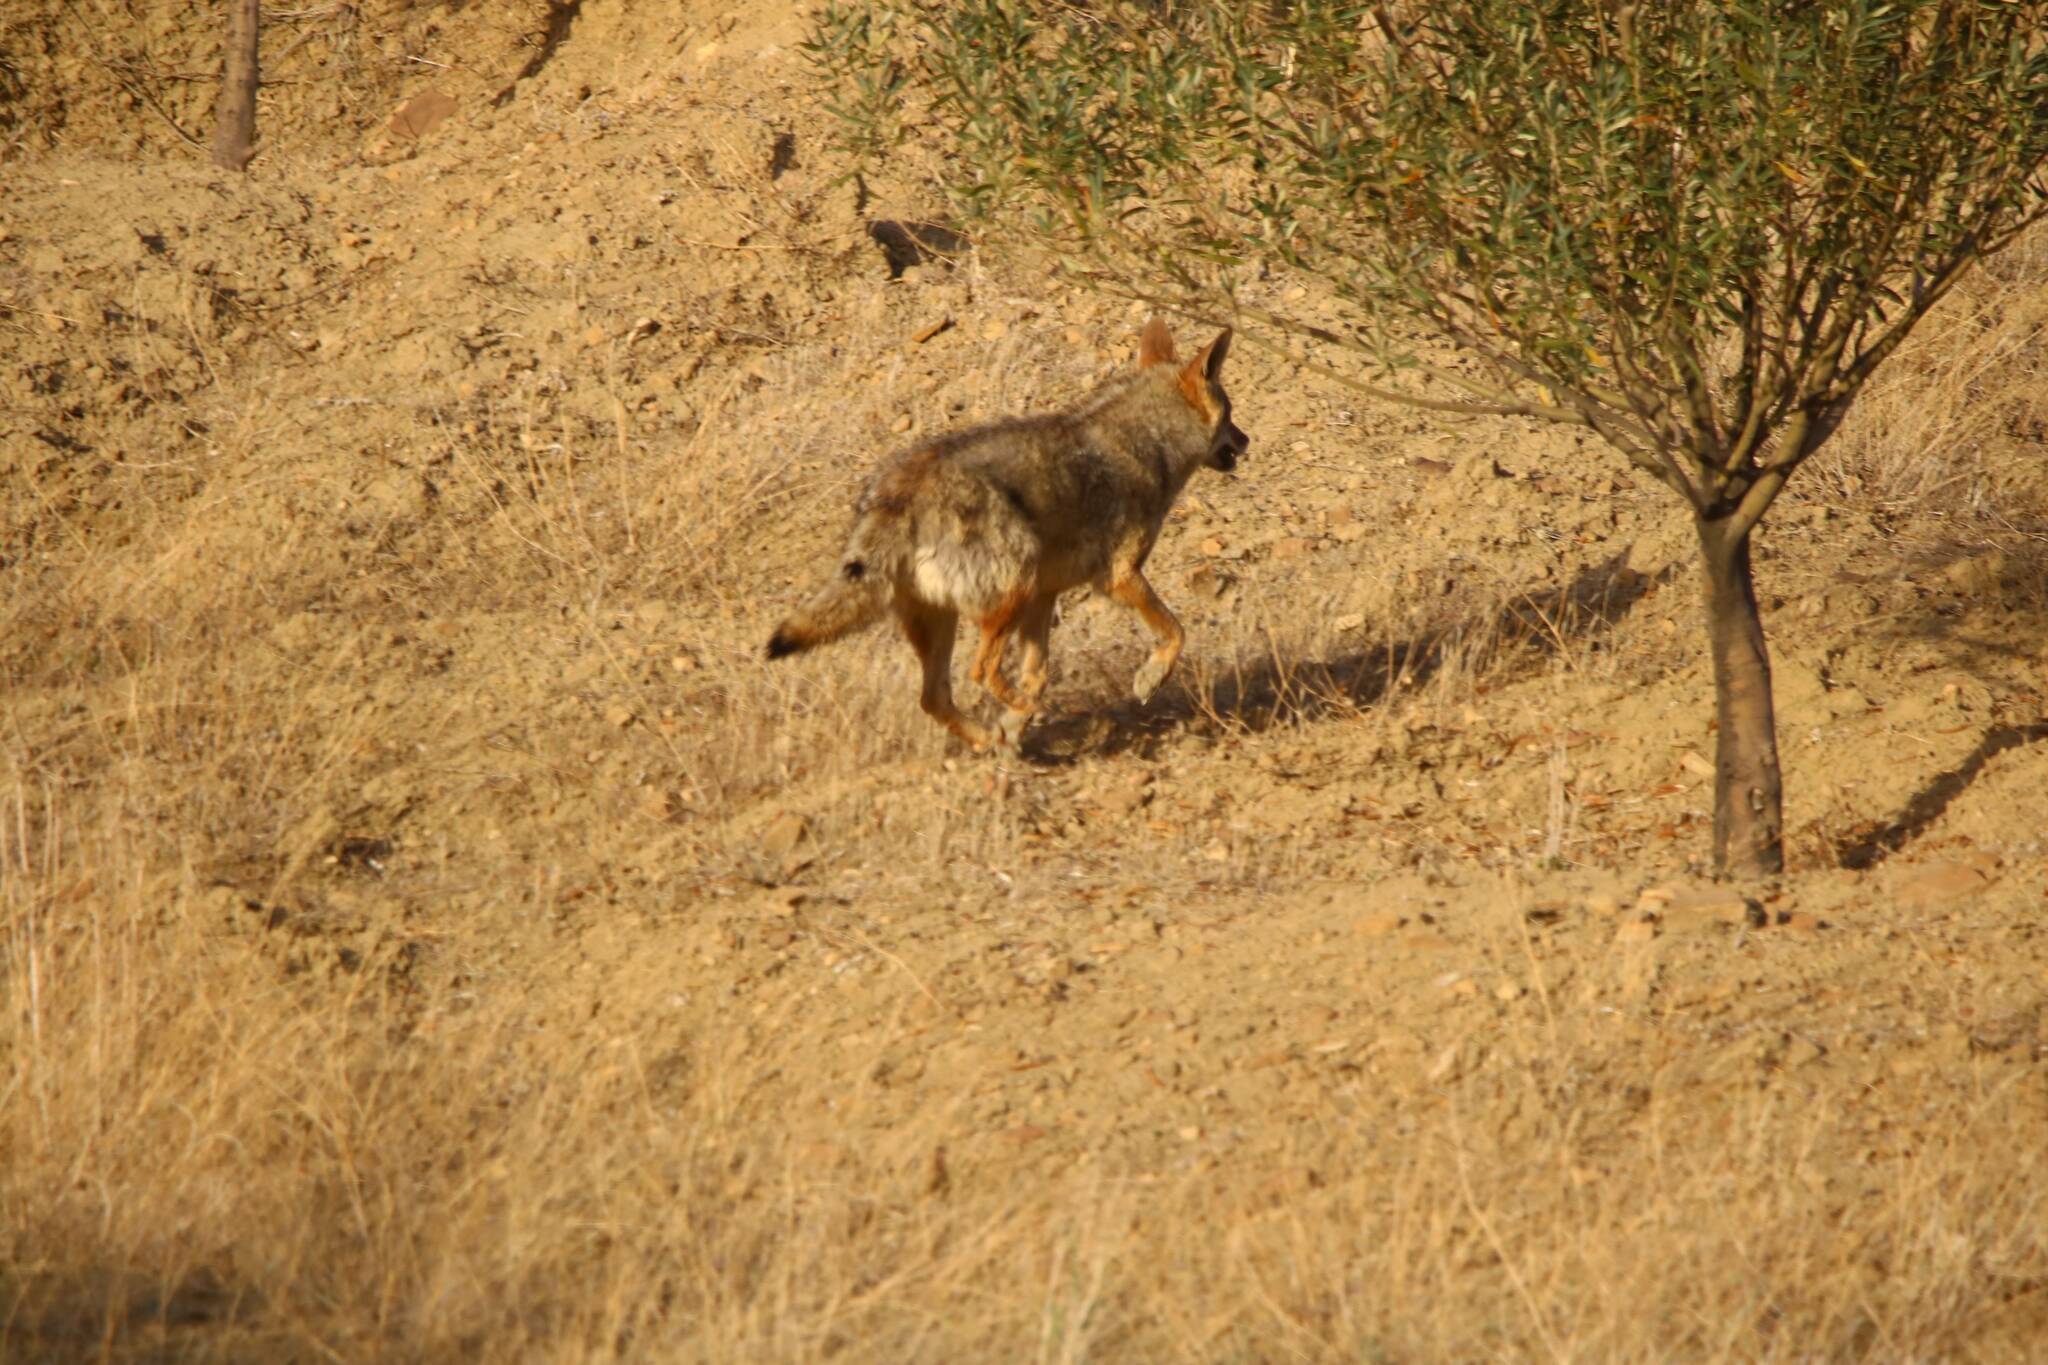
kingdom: Animalia
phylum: Chordata
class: Mammalia
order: Carnivora
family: Canidae
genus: Canis
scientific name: Canis lupaster
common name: African golden wolf
